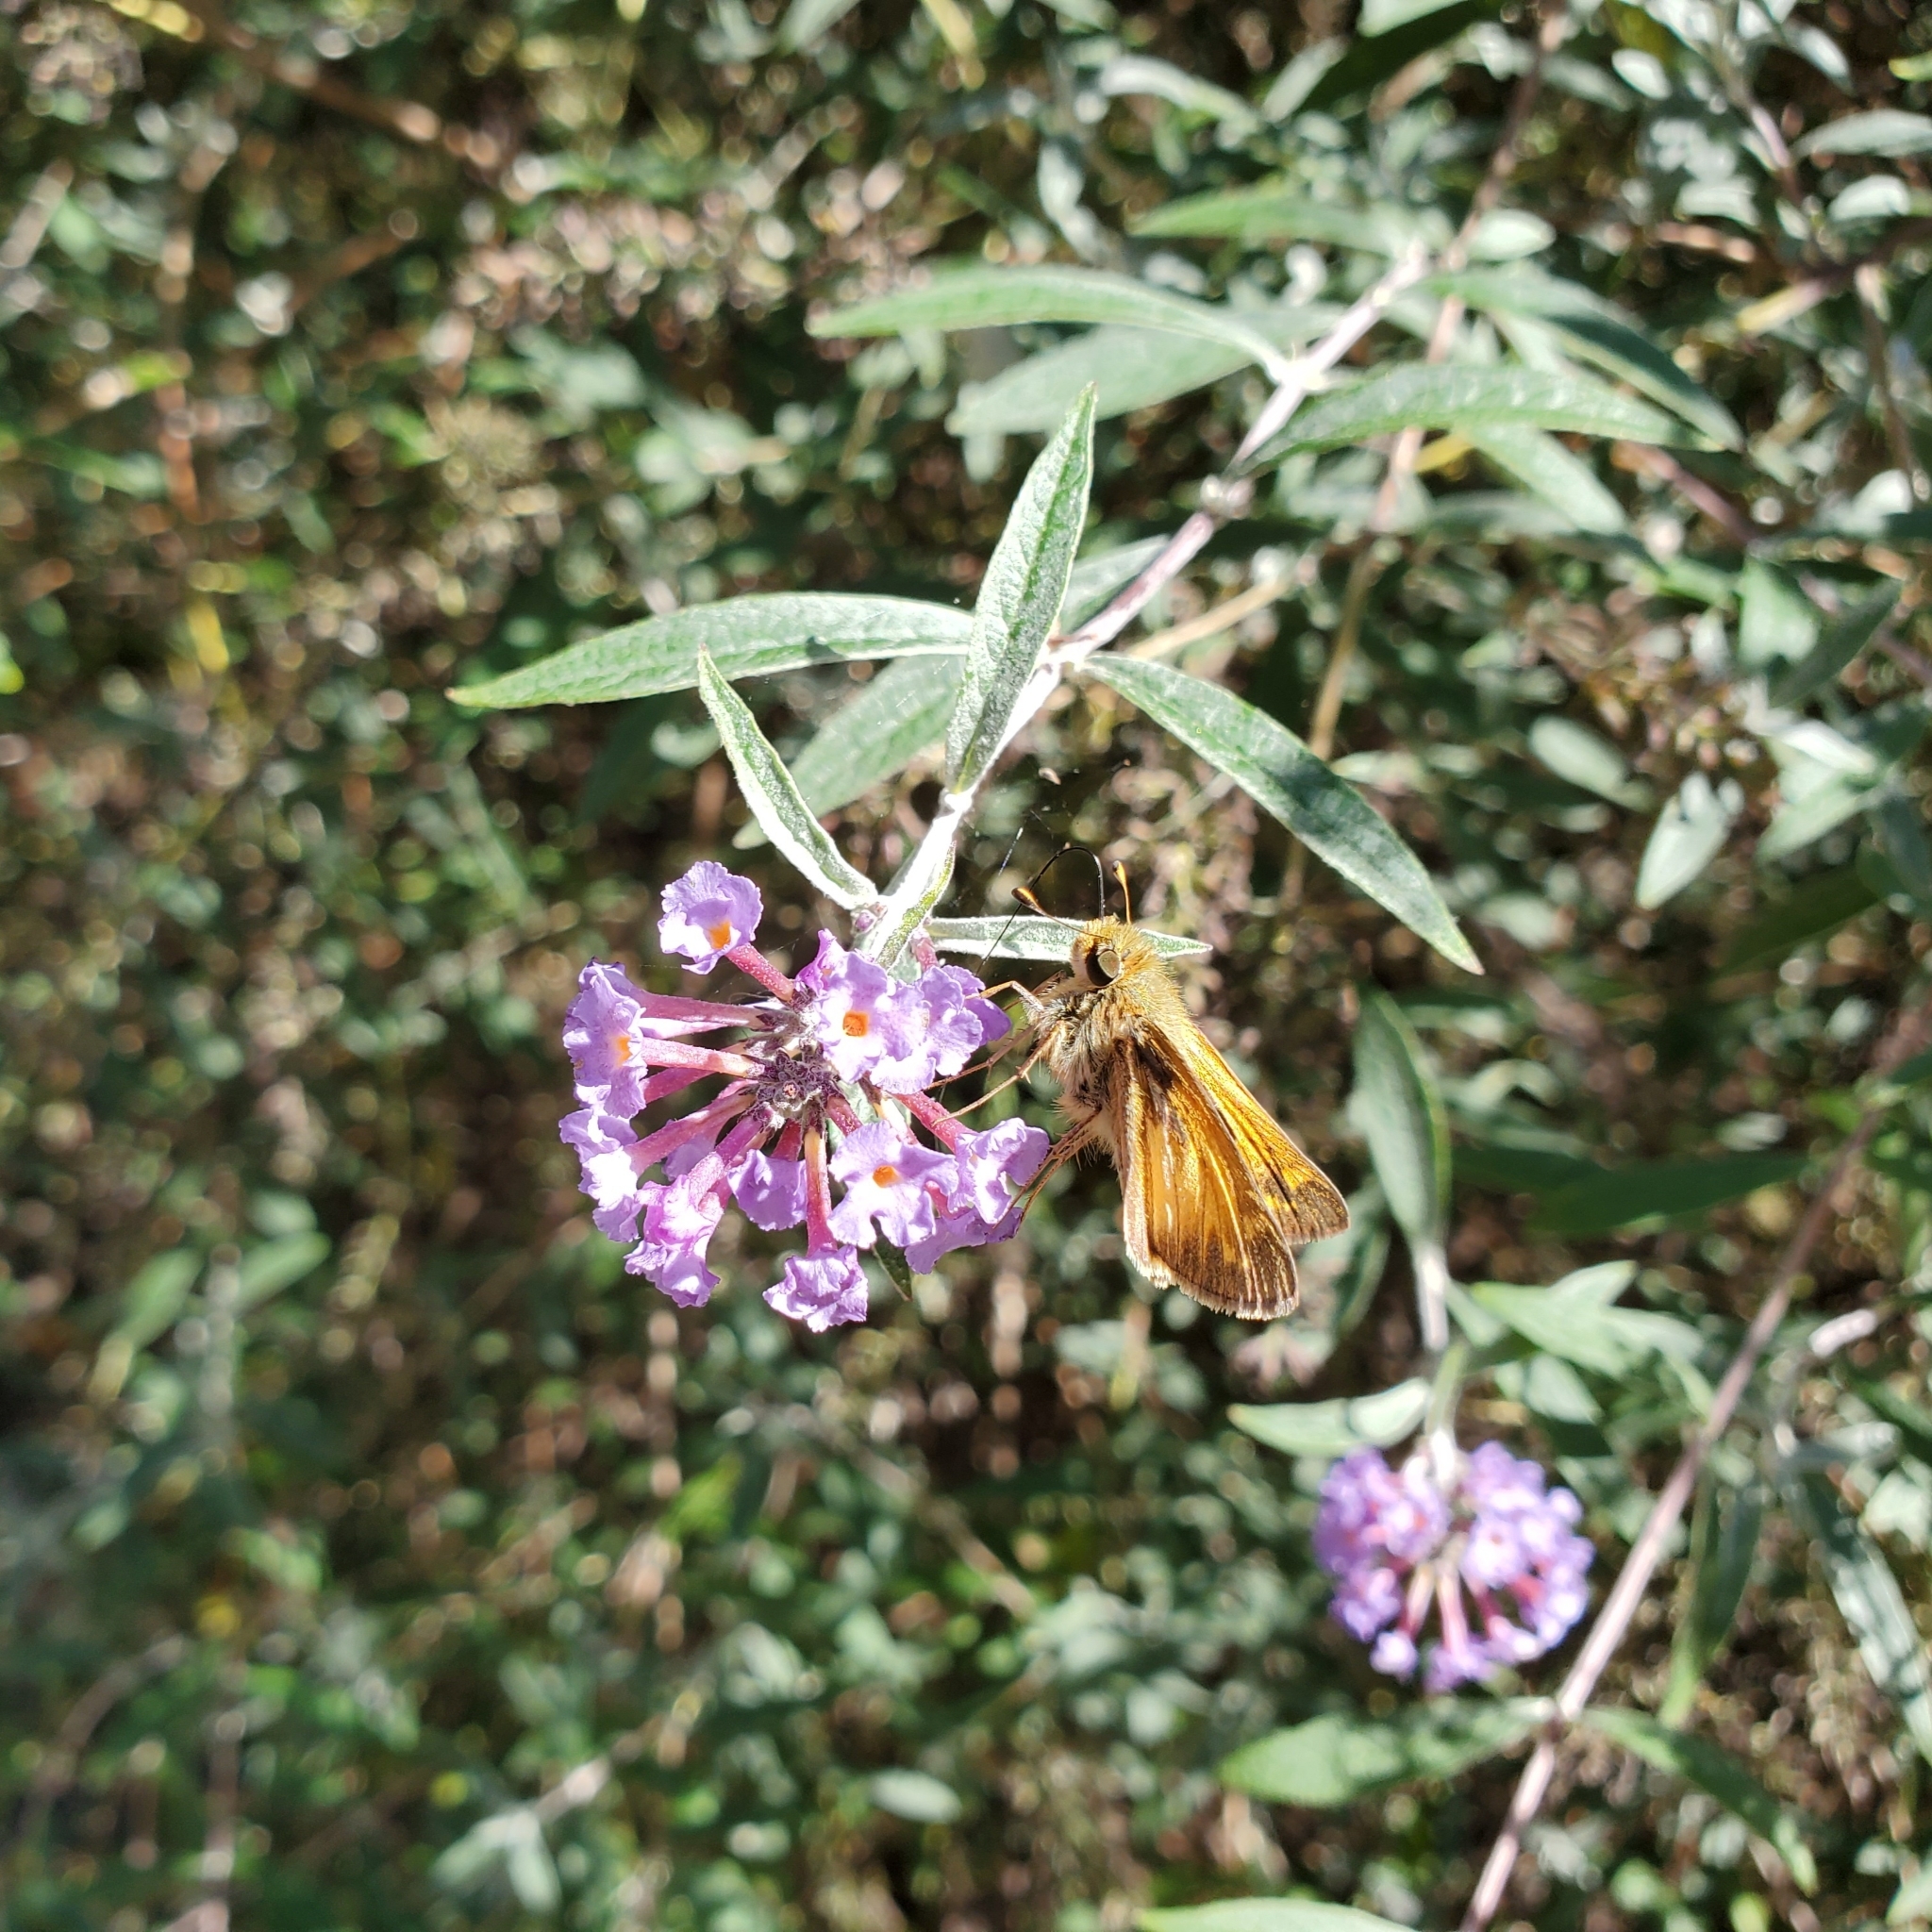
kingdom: Animalia
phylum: Arthropoda
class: Insecta
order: Lepidoptera
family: Hesperiidae
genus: Atalopedes
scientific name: Atalopedes
